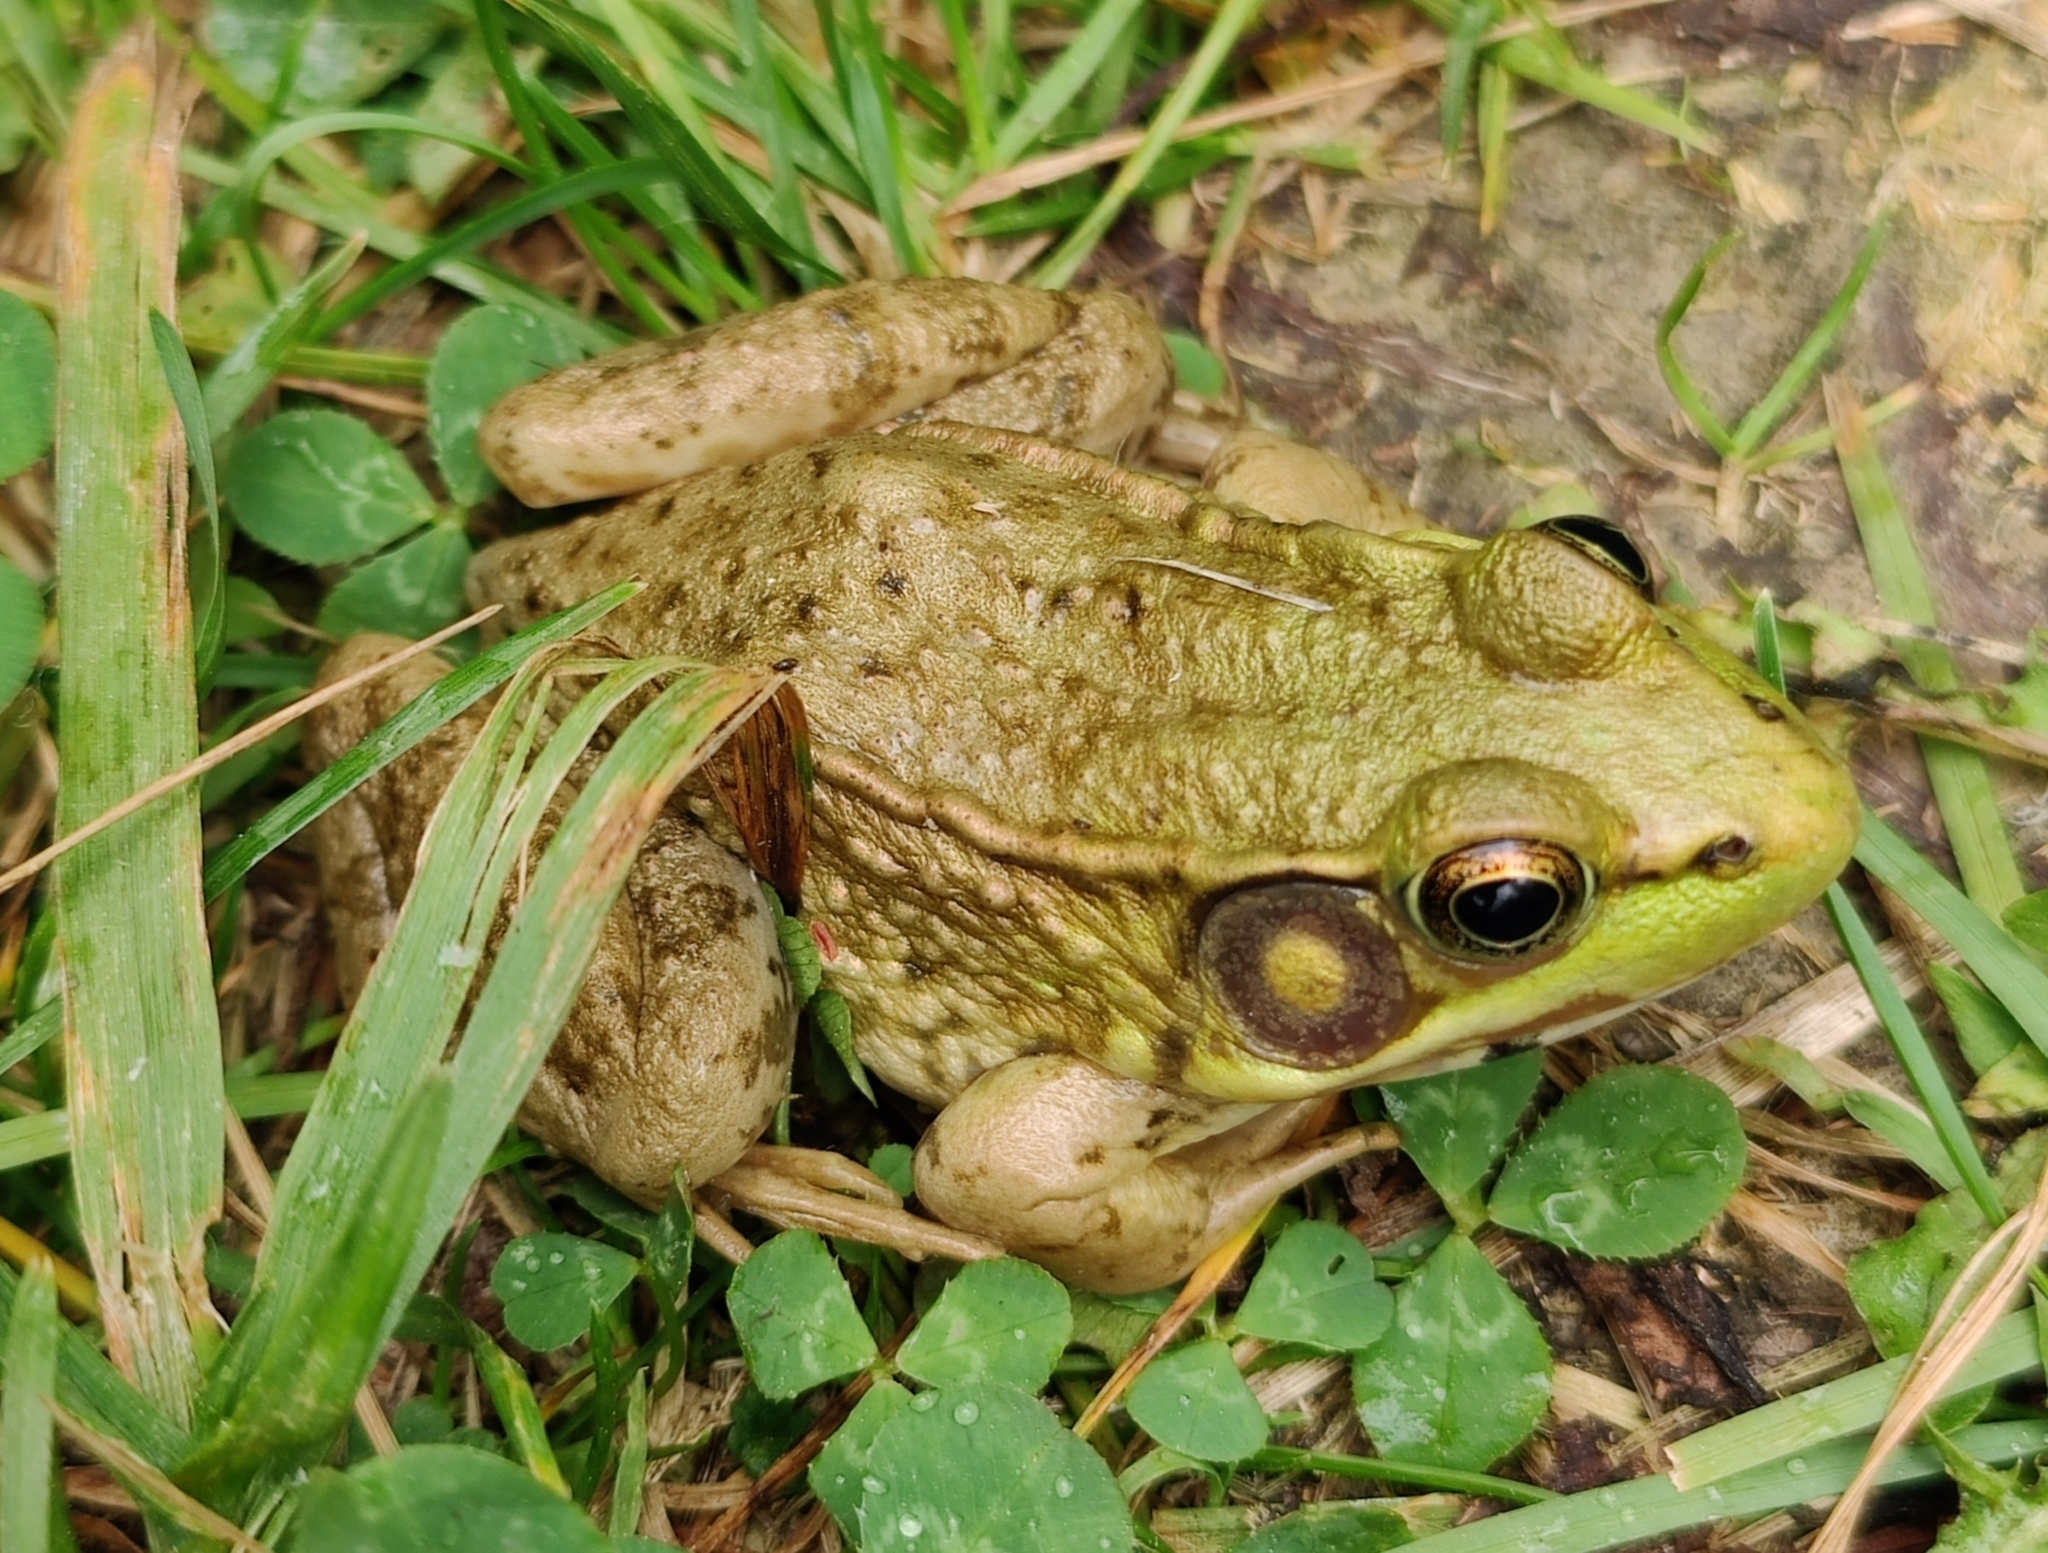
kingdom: Animalia
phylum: Chordata
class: Amphibia
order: Anura
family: Ranidae
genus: Lithobates
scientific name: Lithobates clamitans
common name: Green frog
